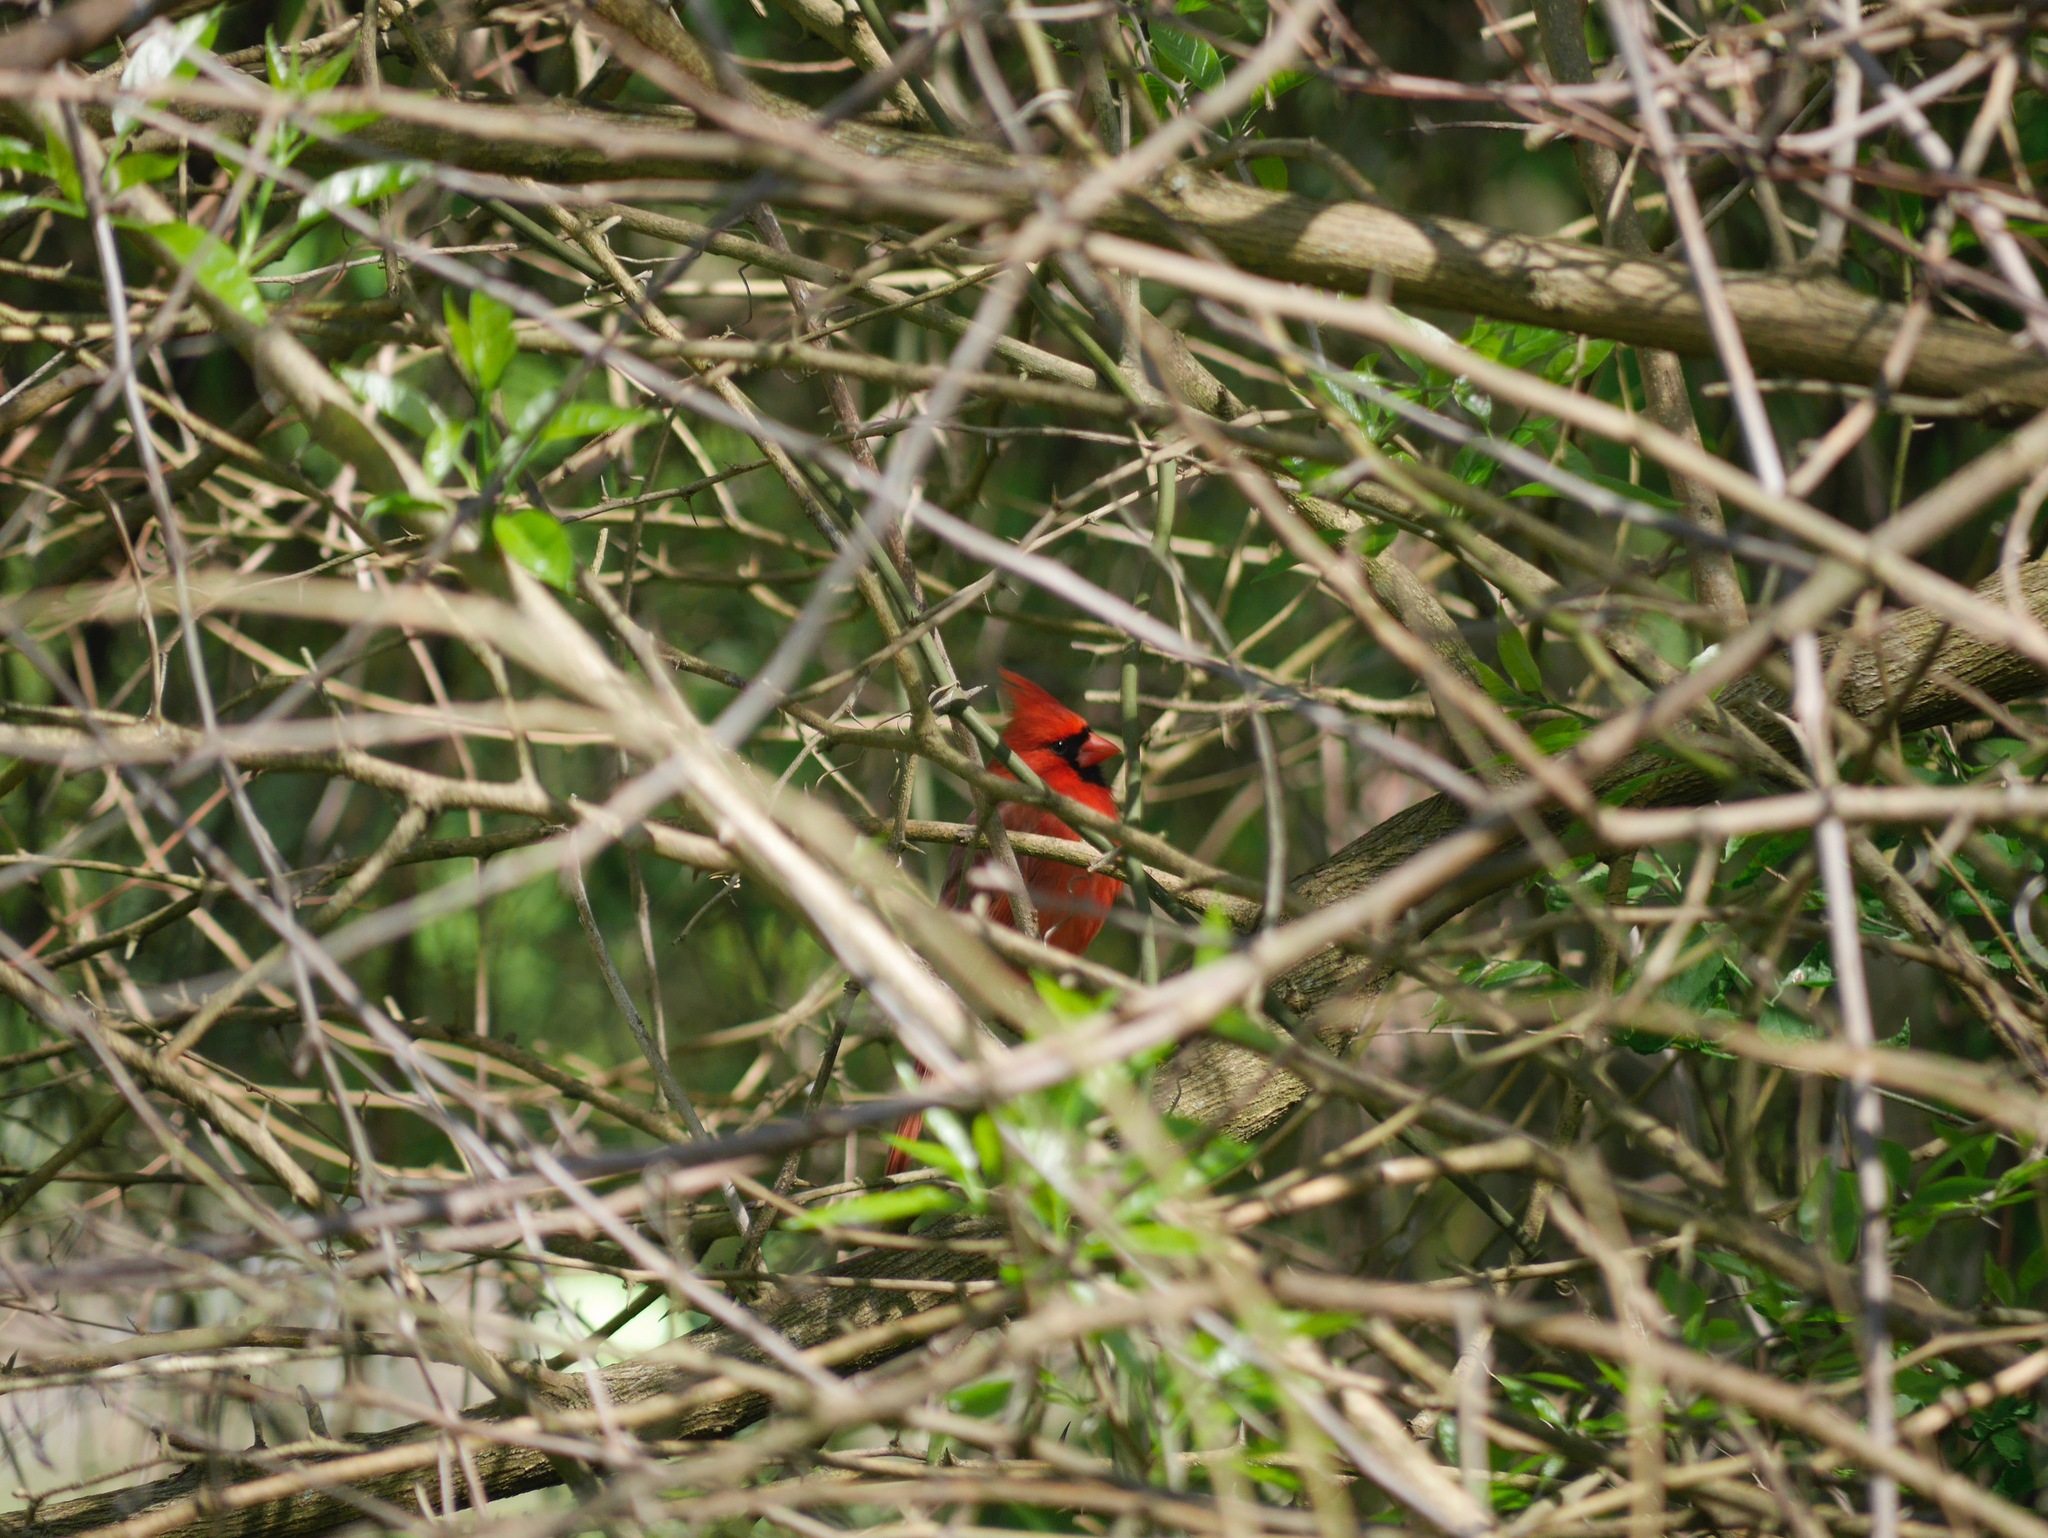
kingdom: Animalia
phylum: Chordata
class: Aves
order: Passeriformes
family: Cardinalidae
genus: Cardinalis
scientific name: Cardinalis cardinalis
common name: Northern cardinal
